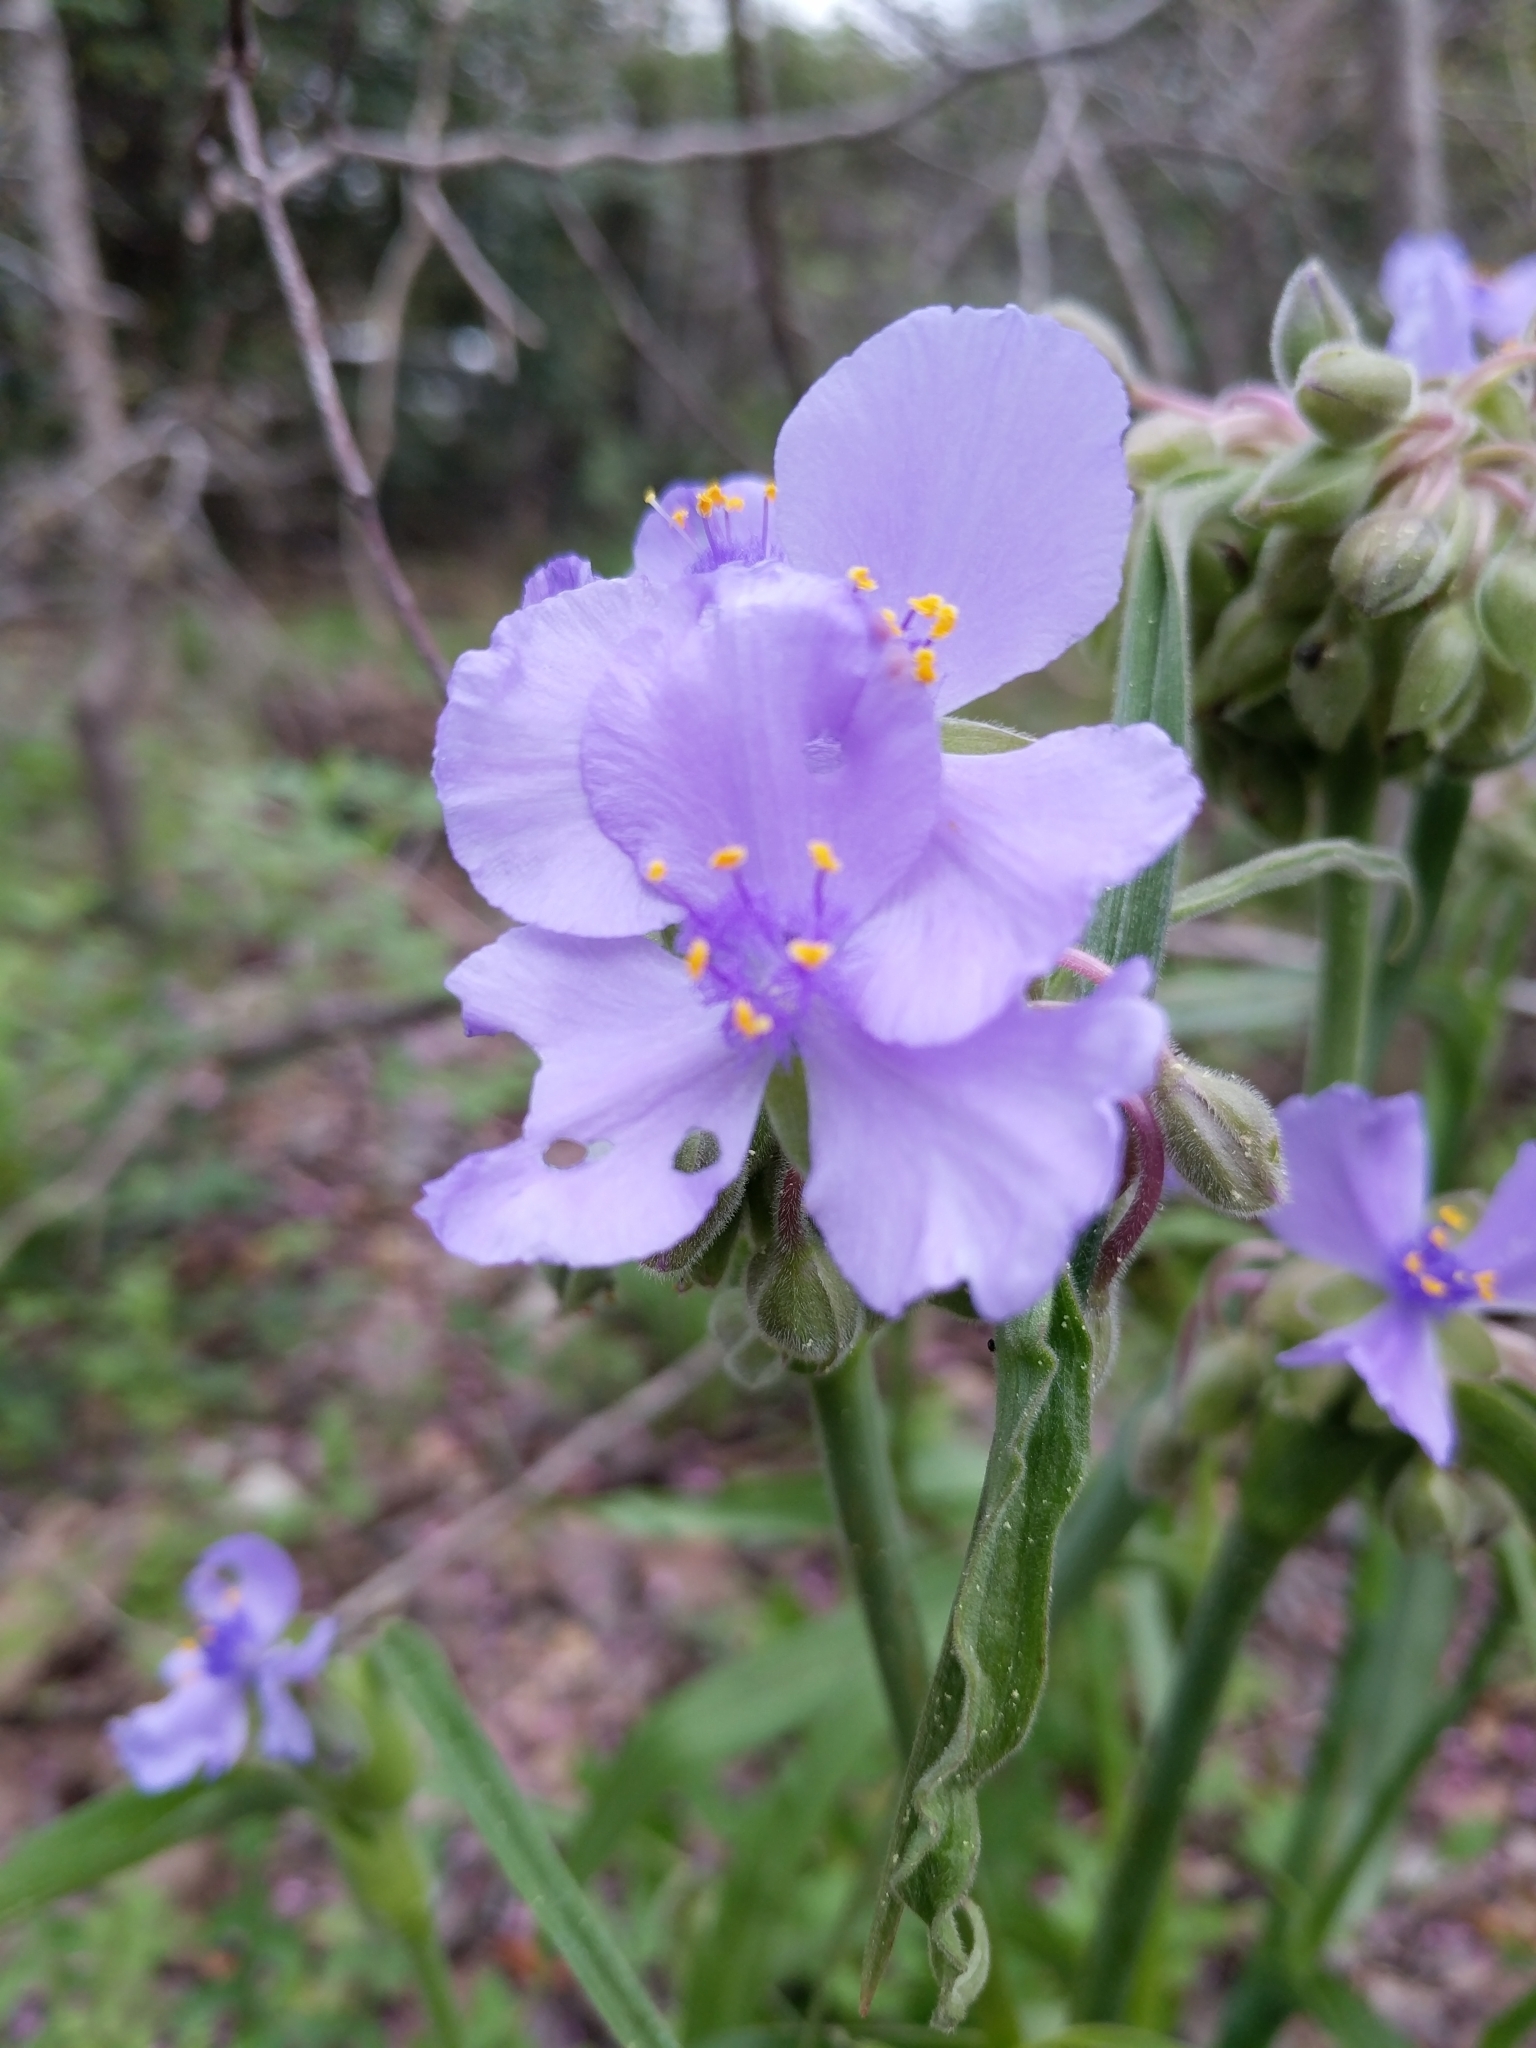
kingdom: Plantae
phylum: Tracheophyta
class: Liliopsida
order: Commelinales
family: Commelinaceae
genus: Tradescantia
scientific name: Tradescantia gigantea
